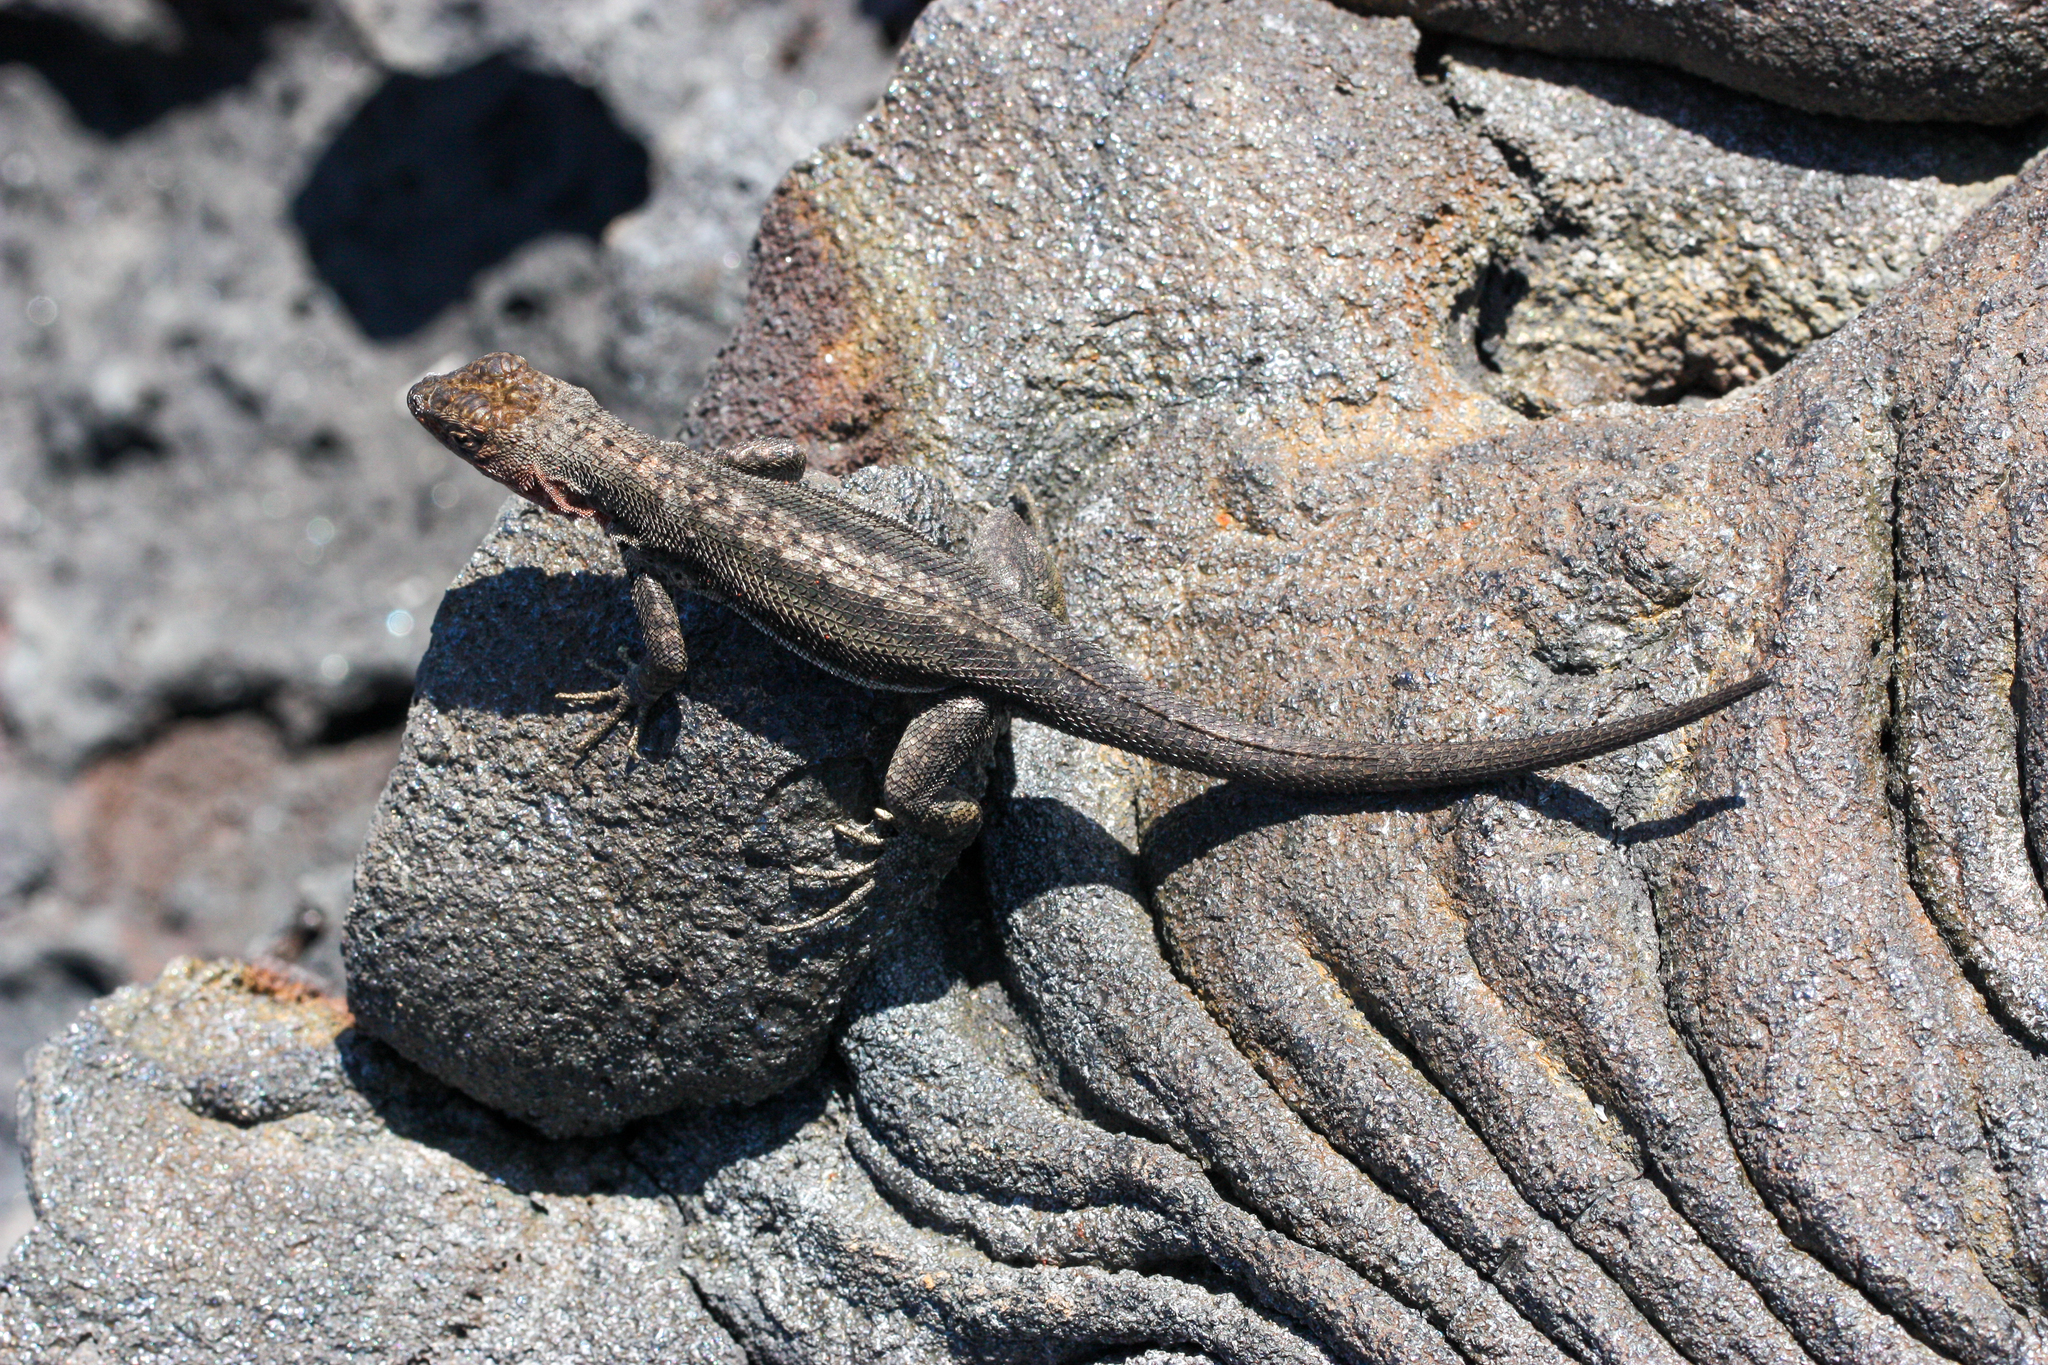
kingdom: Animalia
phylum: Chordata
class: Squamata
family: Tropiduridae
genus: Microlophus
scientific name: Microlophus jacobii
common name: Santiago lava lizard
